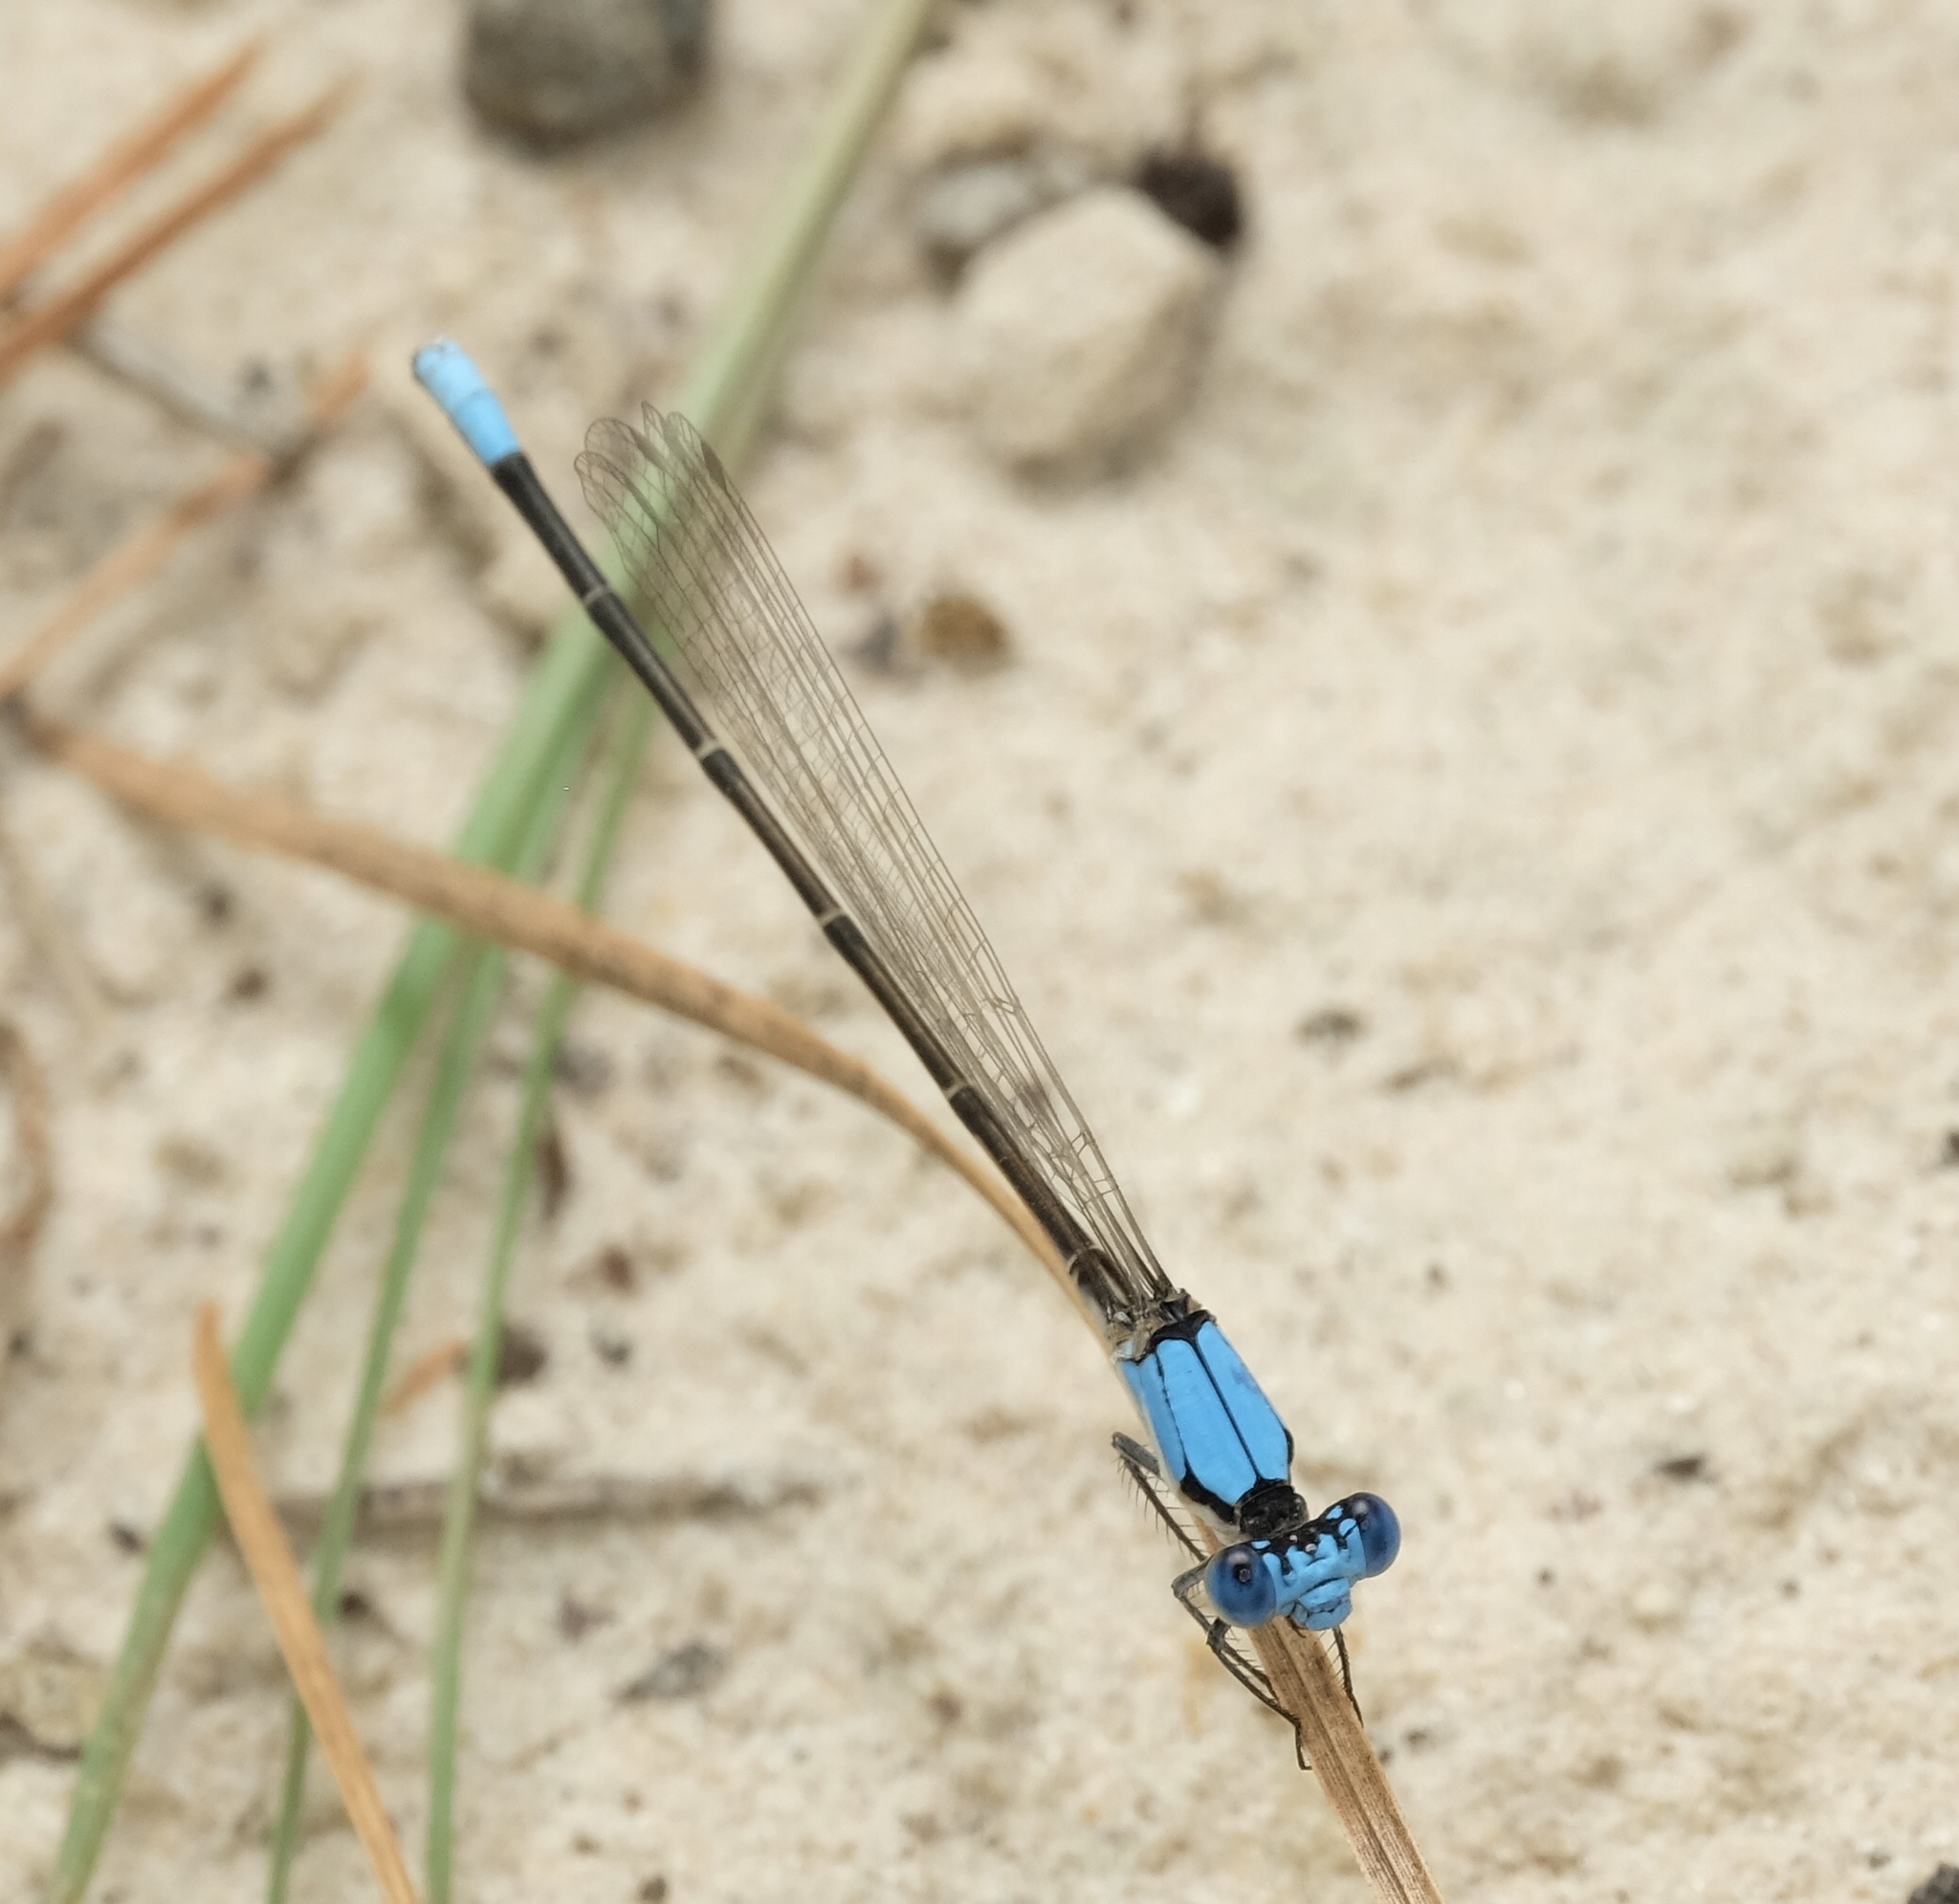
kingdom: Animalia
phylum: Arthropoda
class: Insecta
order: Odonata
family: Coenagrionidae
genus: Argia
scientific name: Argia apicalis
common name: Blue-fronted dancer
